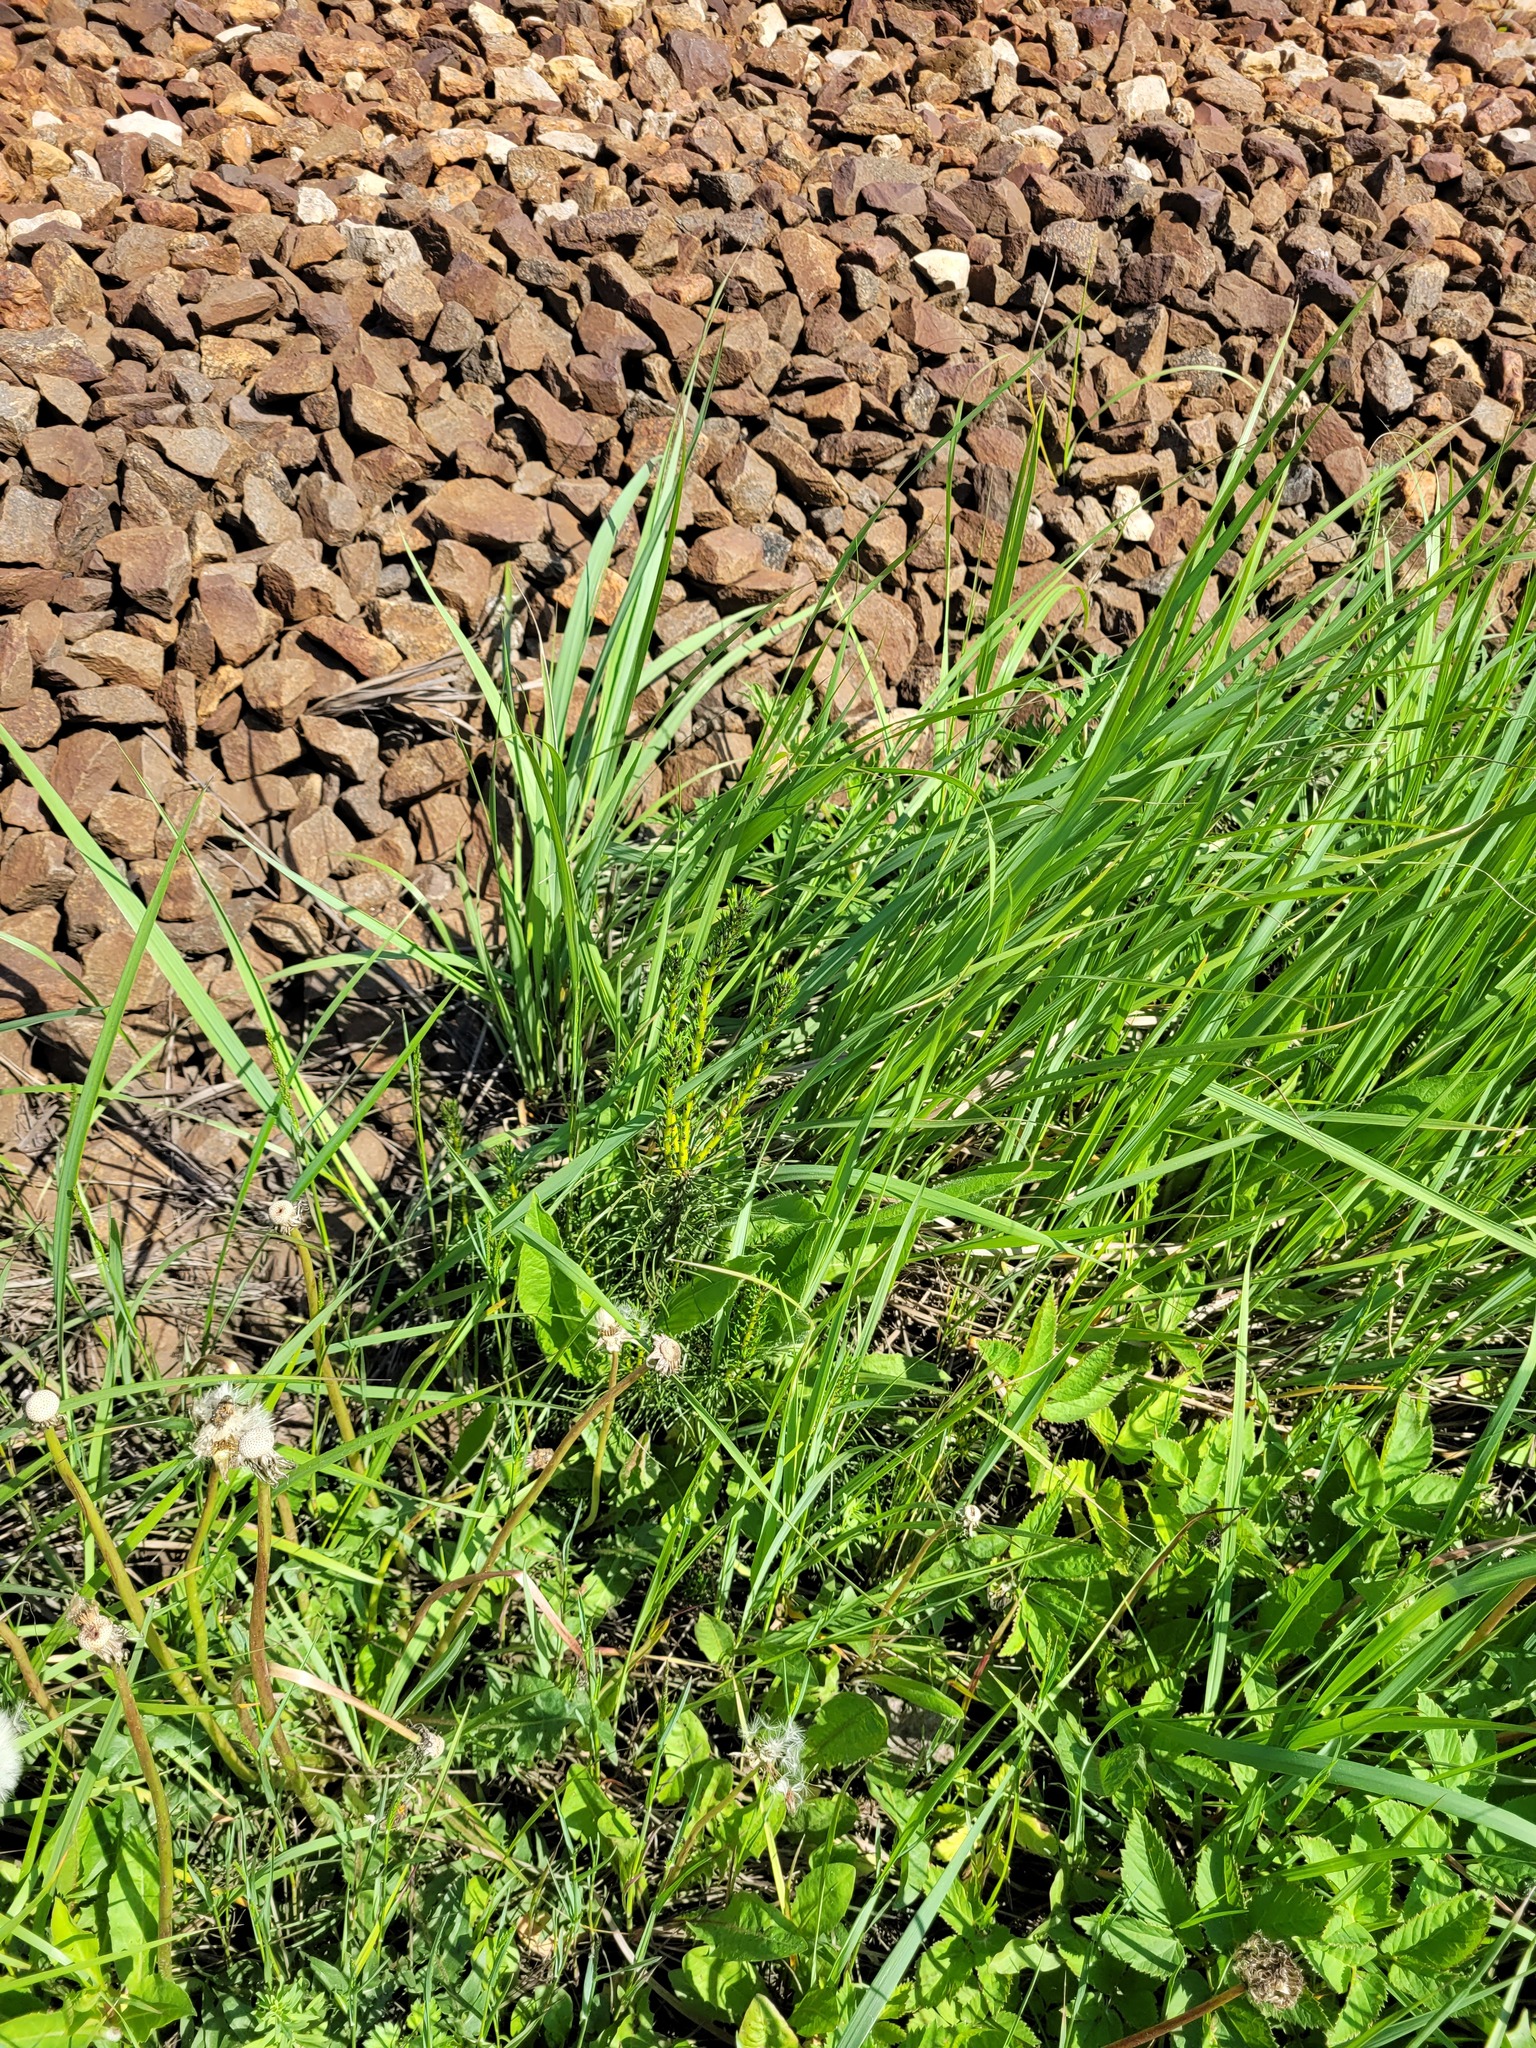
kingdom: Plantae
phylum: Tracheophyta
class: Pinopsida
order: Pinales
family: Pinaceae
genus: Pinus
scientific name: Pinus sylvestris
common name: Scots pine
